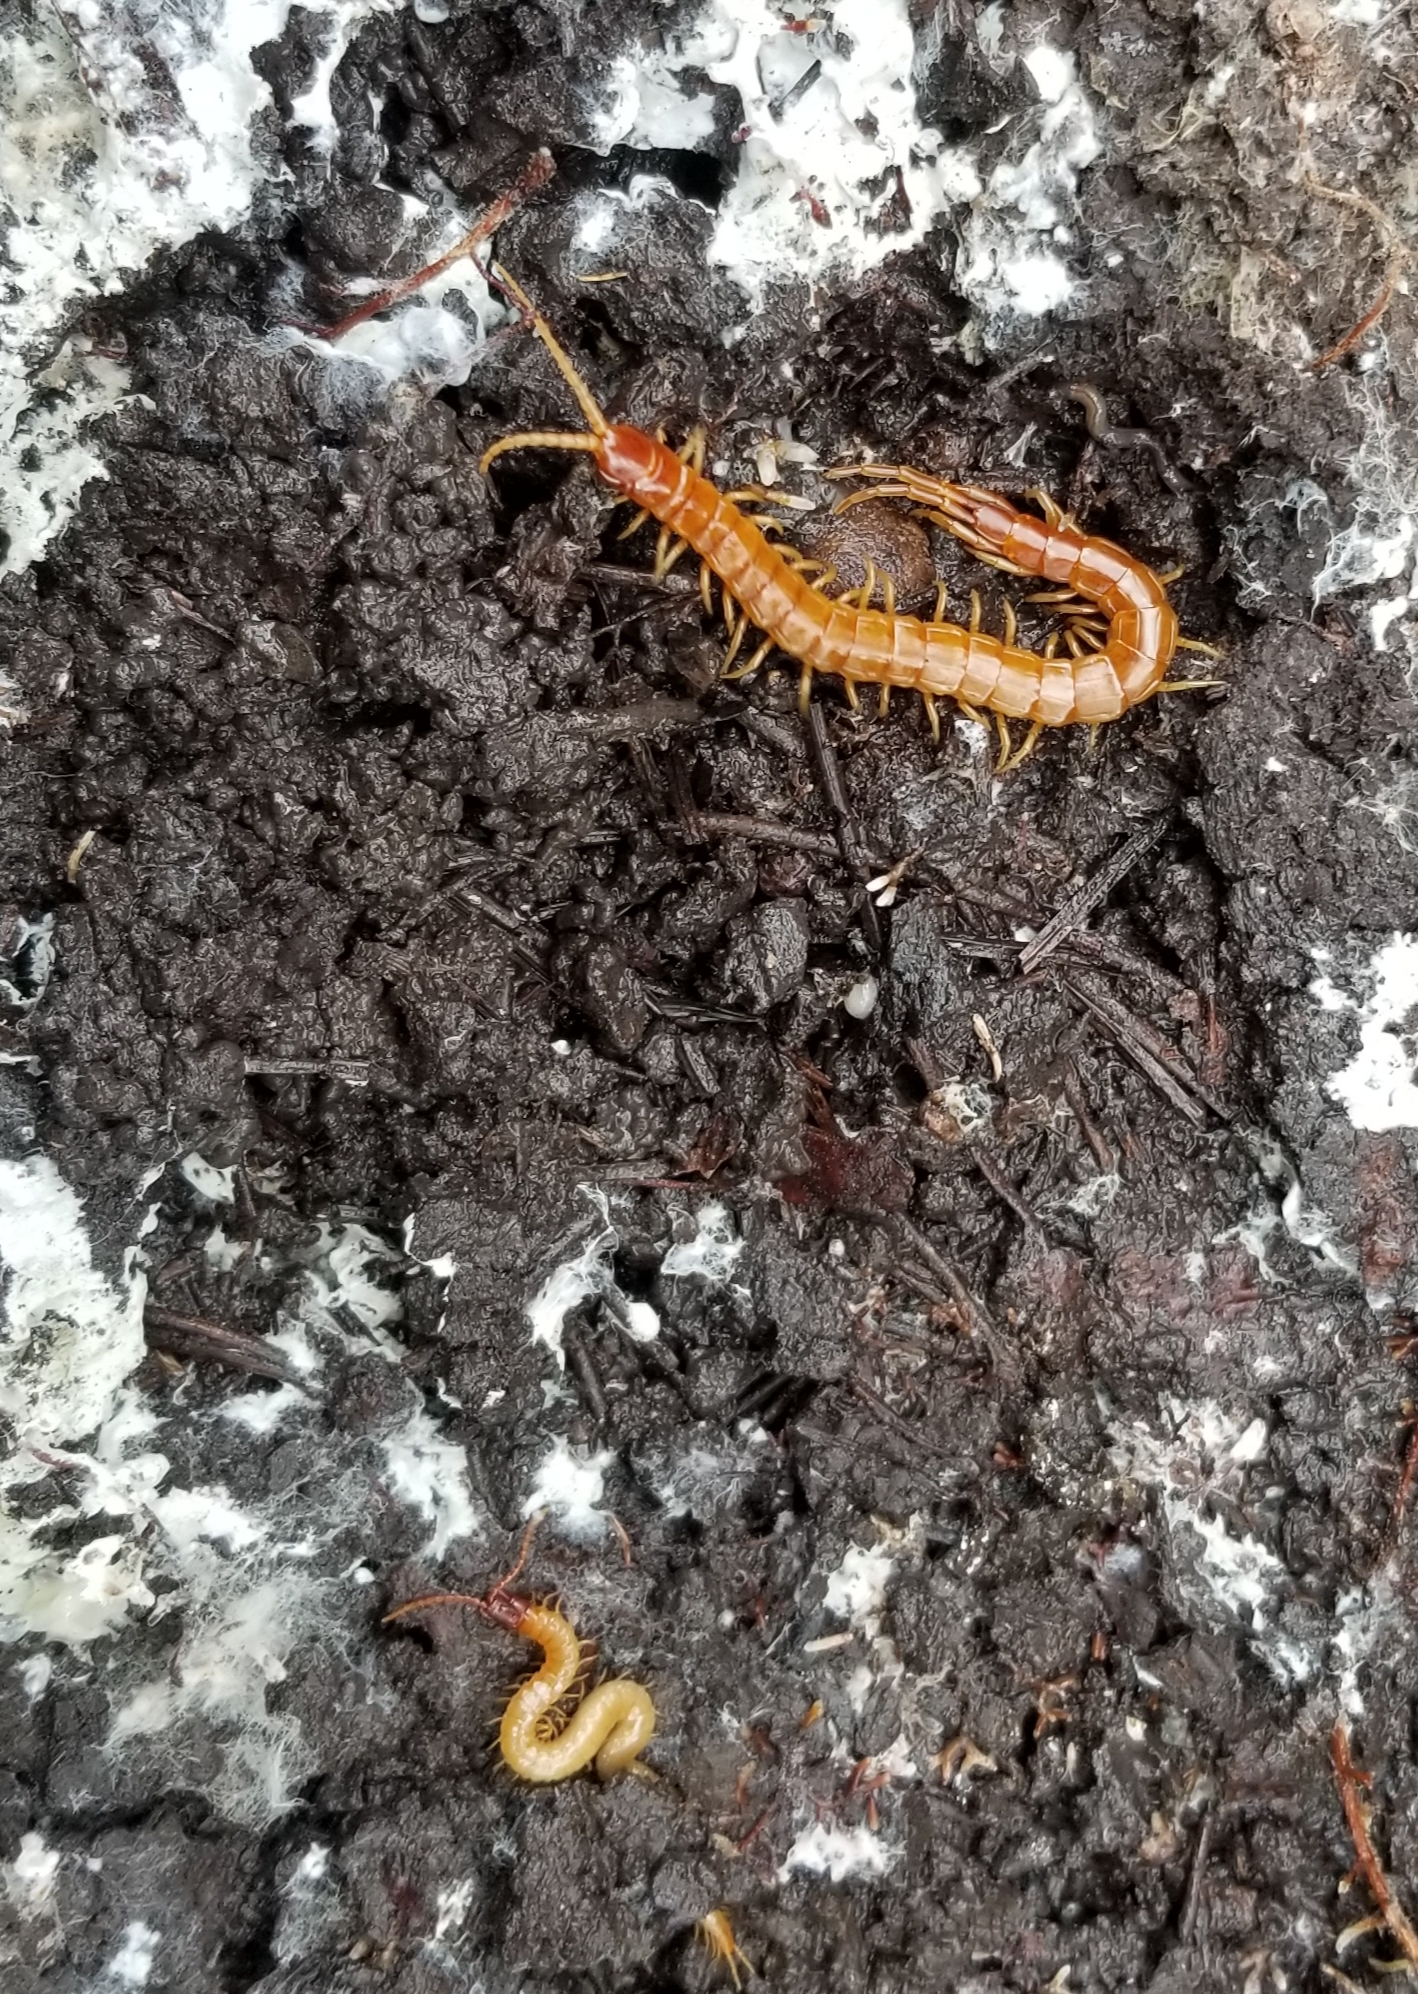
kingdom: Animalia
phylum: Arthropoda
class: Chilopoda
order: Scolopendromorpha
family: Scolopocryptopidae
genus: Scolopocryptops
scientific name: Scolopocryptops gracilis
